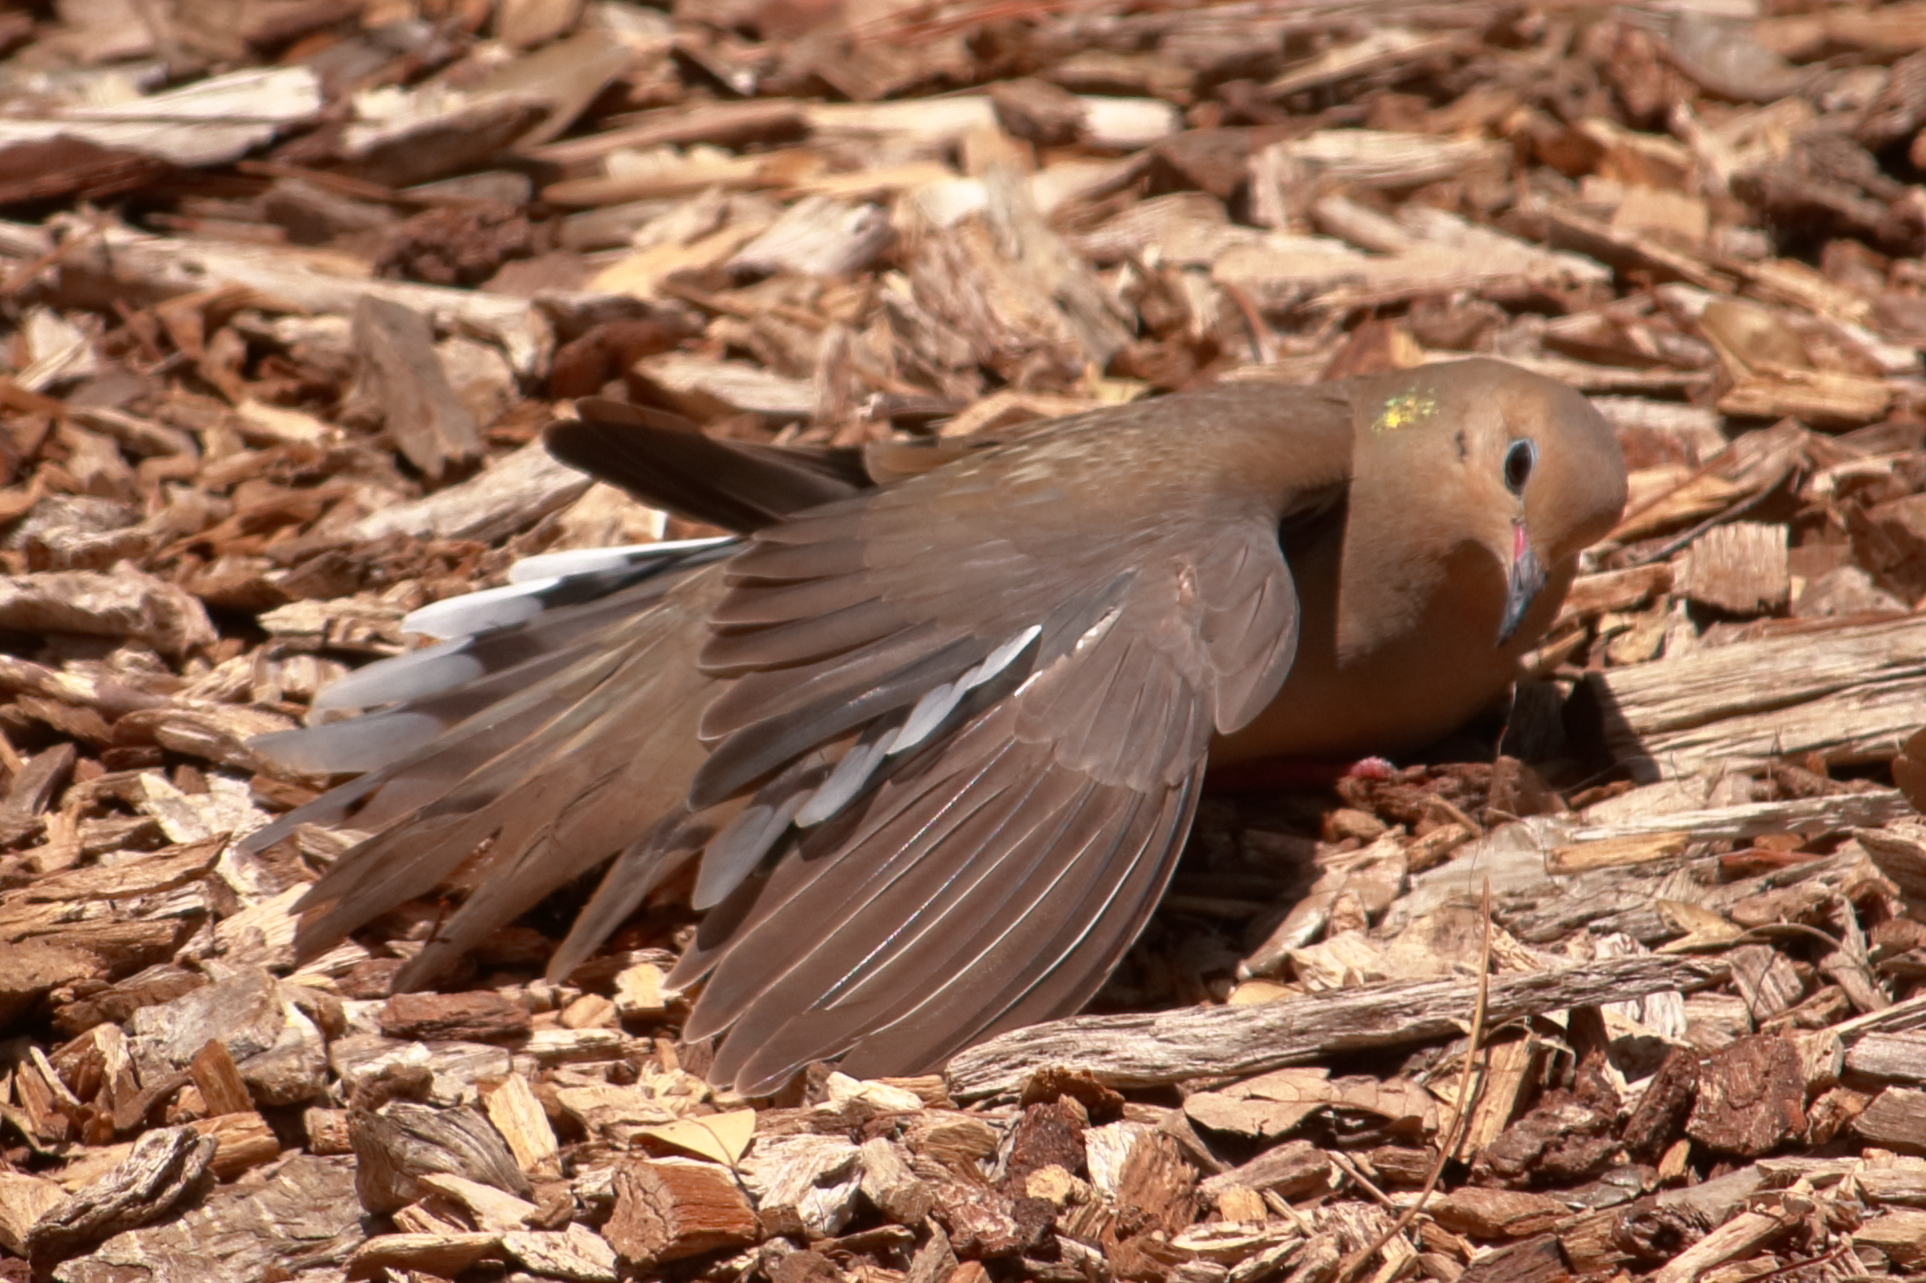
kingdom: Animalia
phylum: Chordata
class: Aves
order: Columbiformes
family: Columbidae
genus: Zenaida
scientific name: Zenaida macroura
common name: Mourning dove
